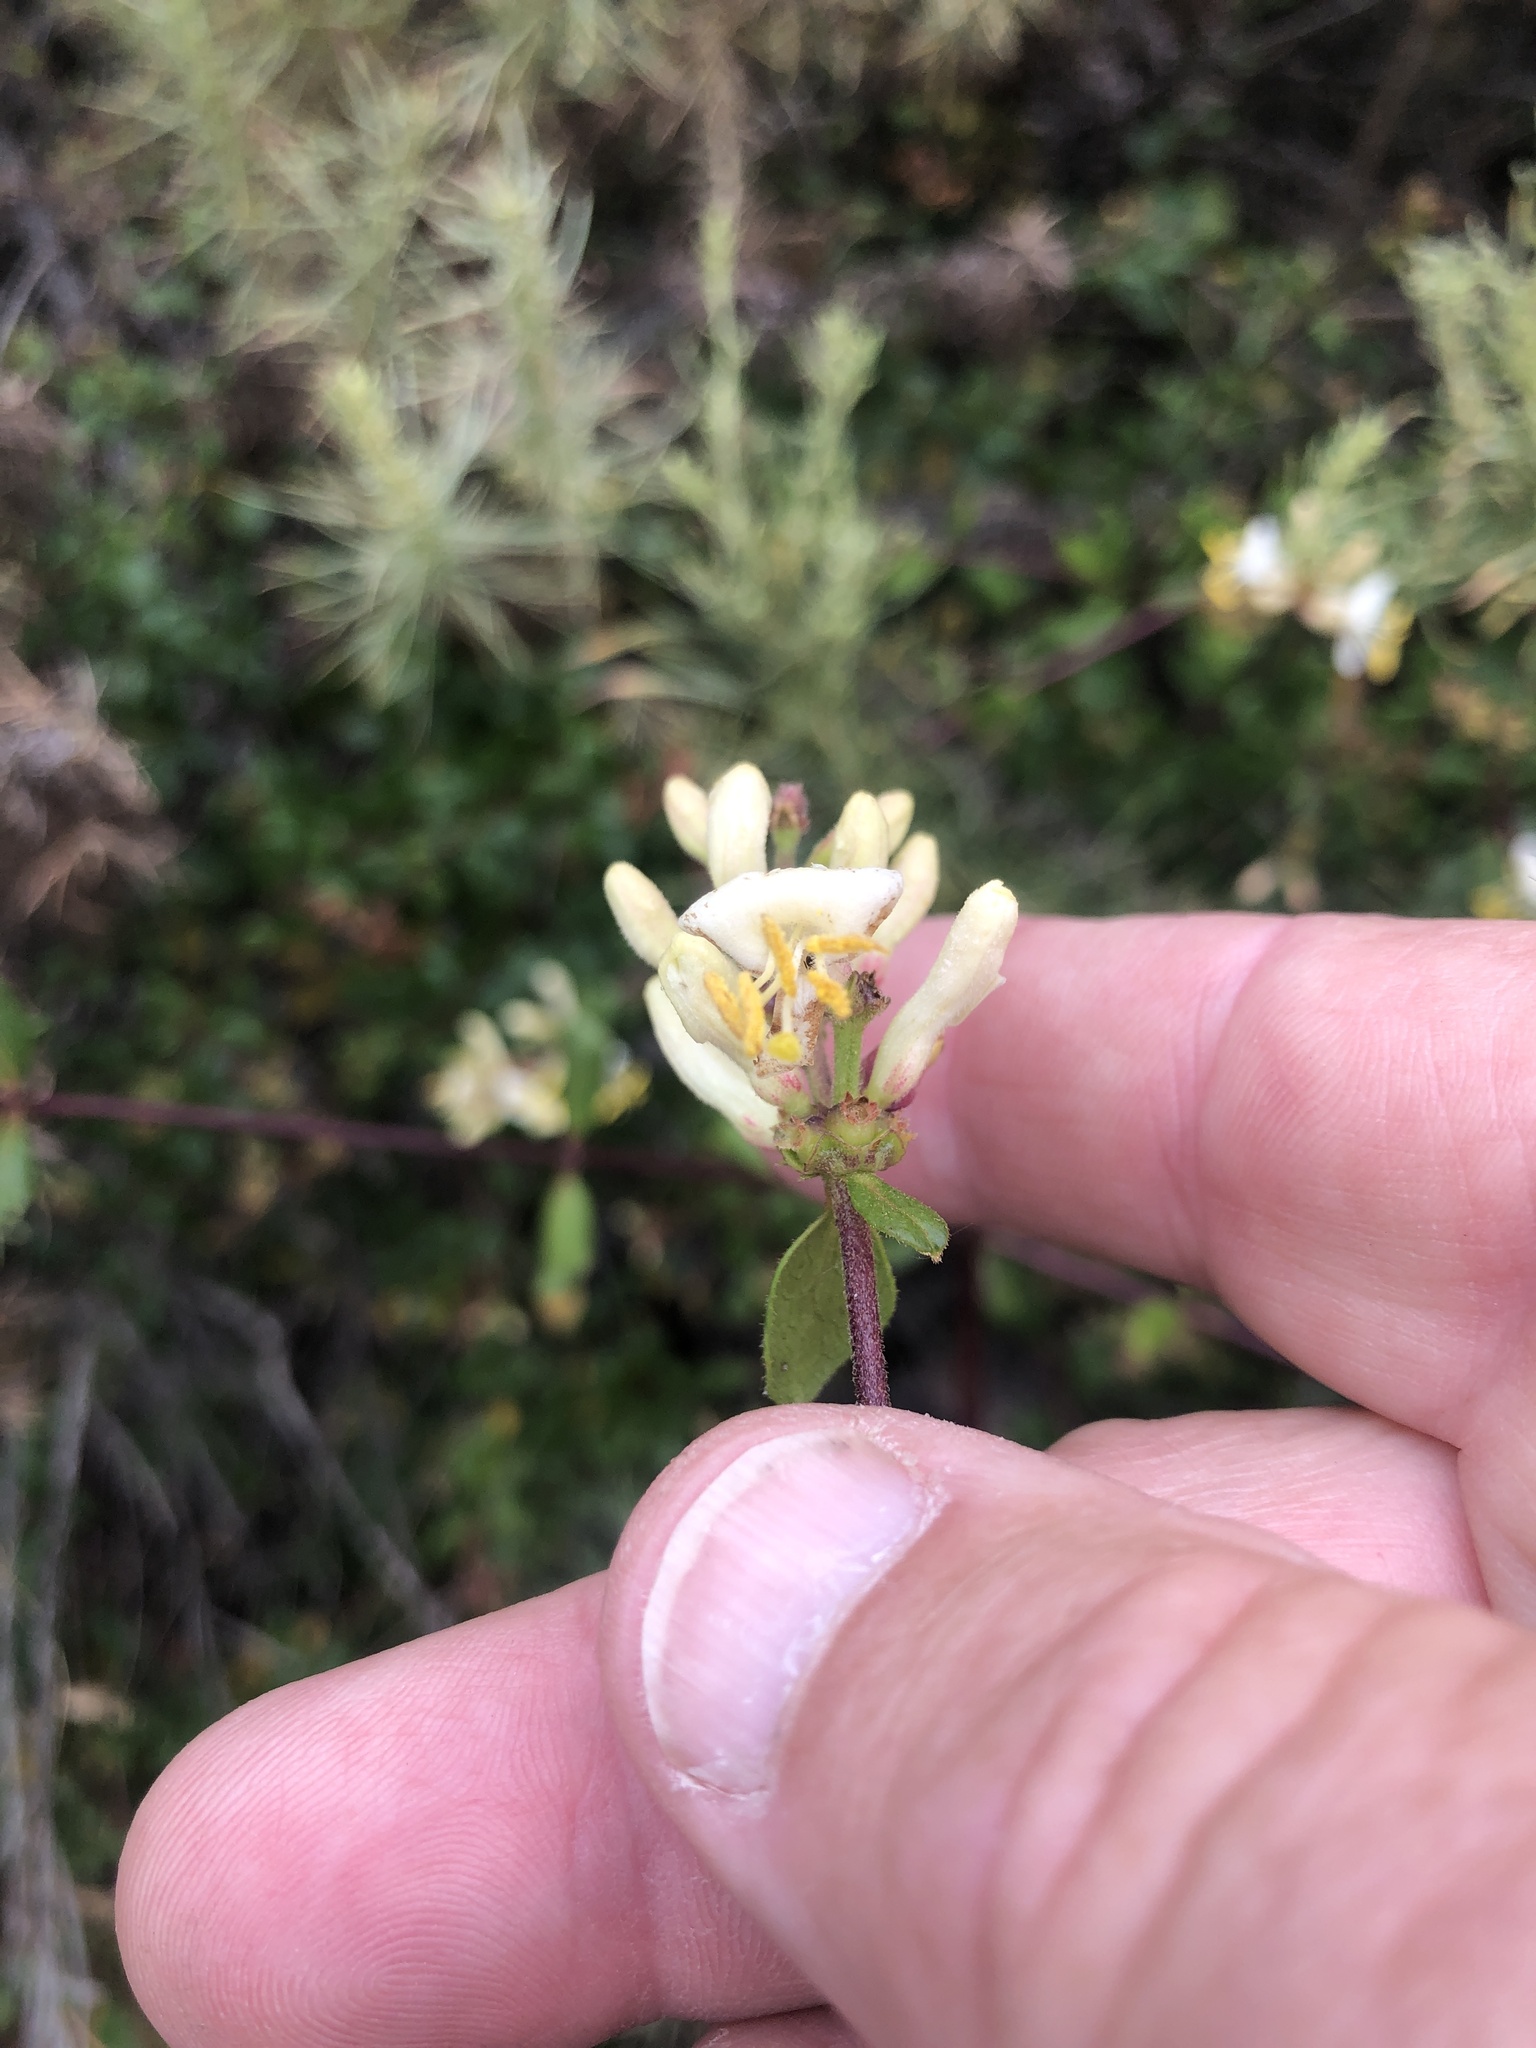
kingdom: Plantae
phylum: Tracheophyta
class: Magnoliopsida
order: Dipsacales
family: Caprifoliaceae
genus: Lonicera
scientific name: Lonicera subspicata
